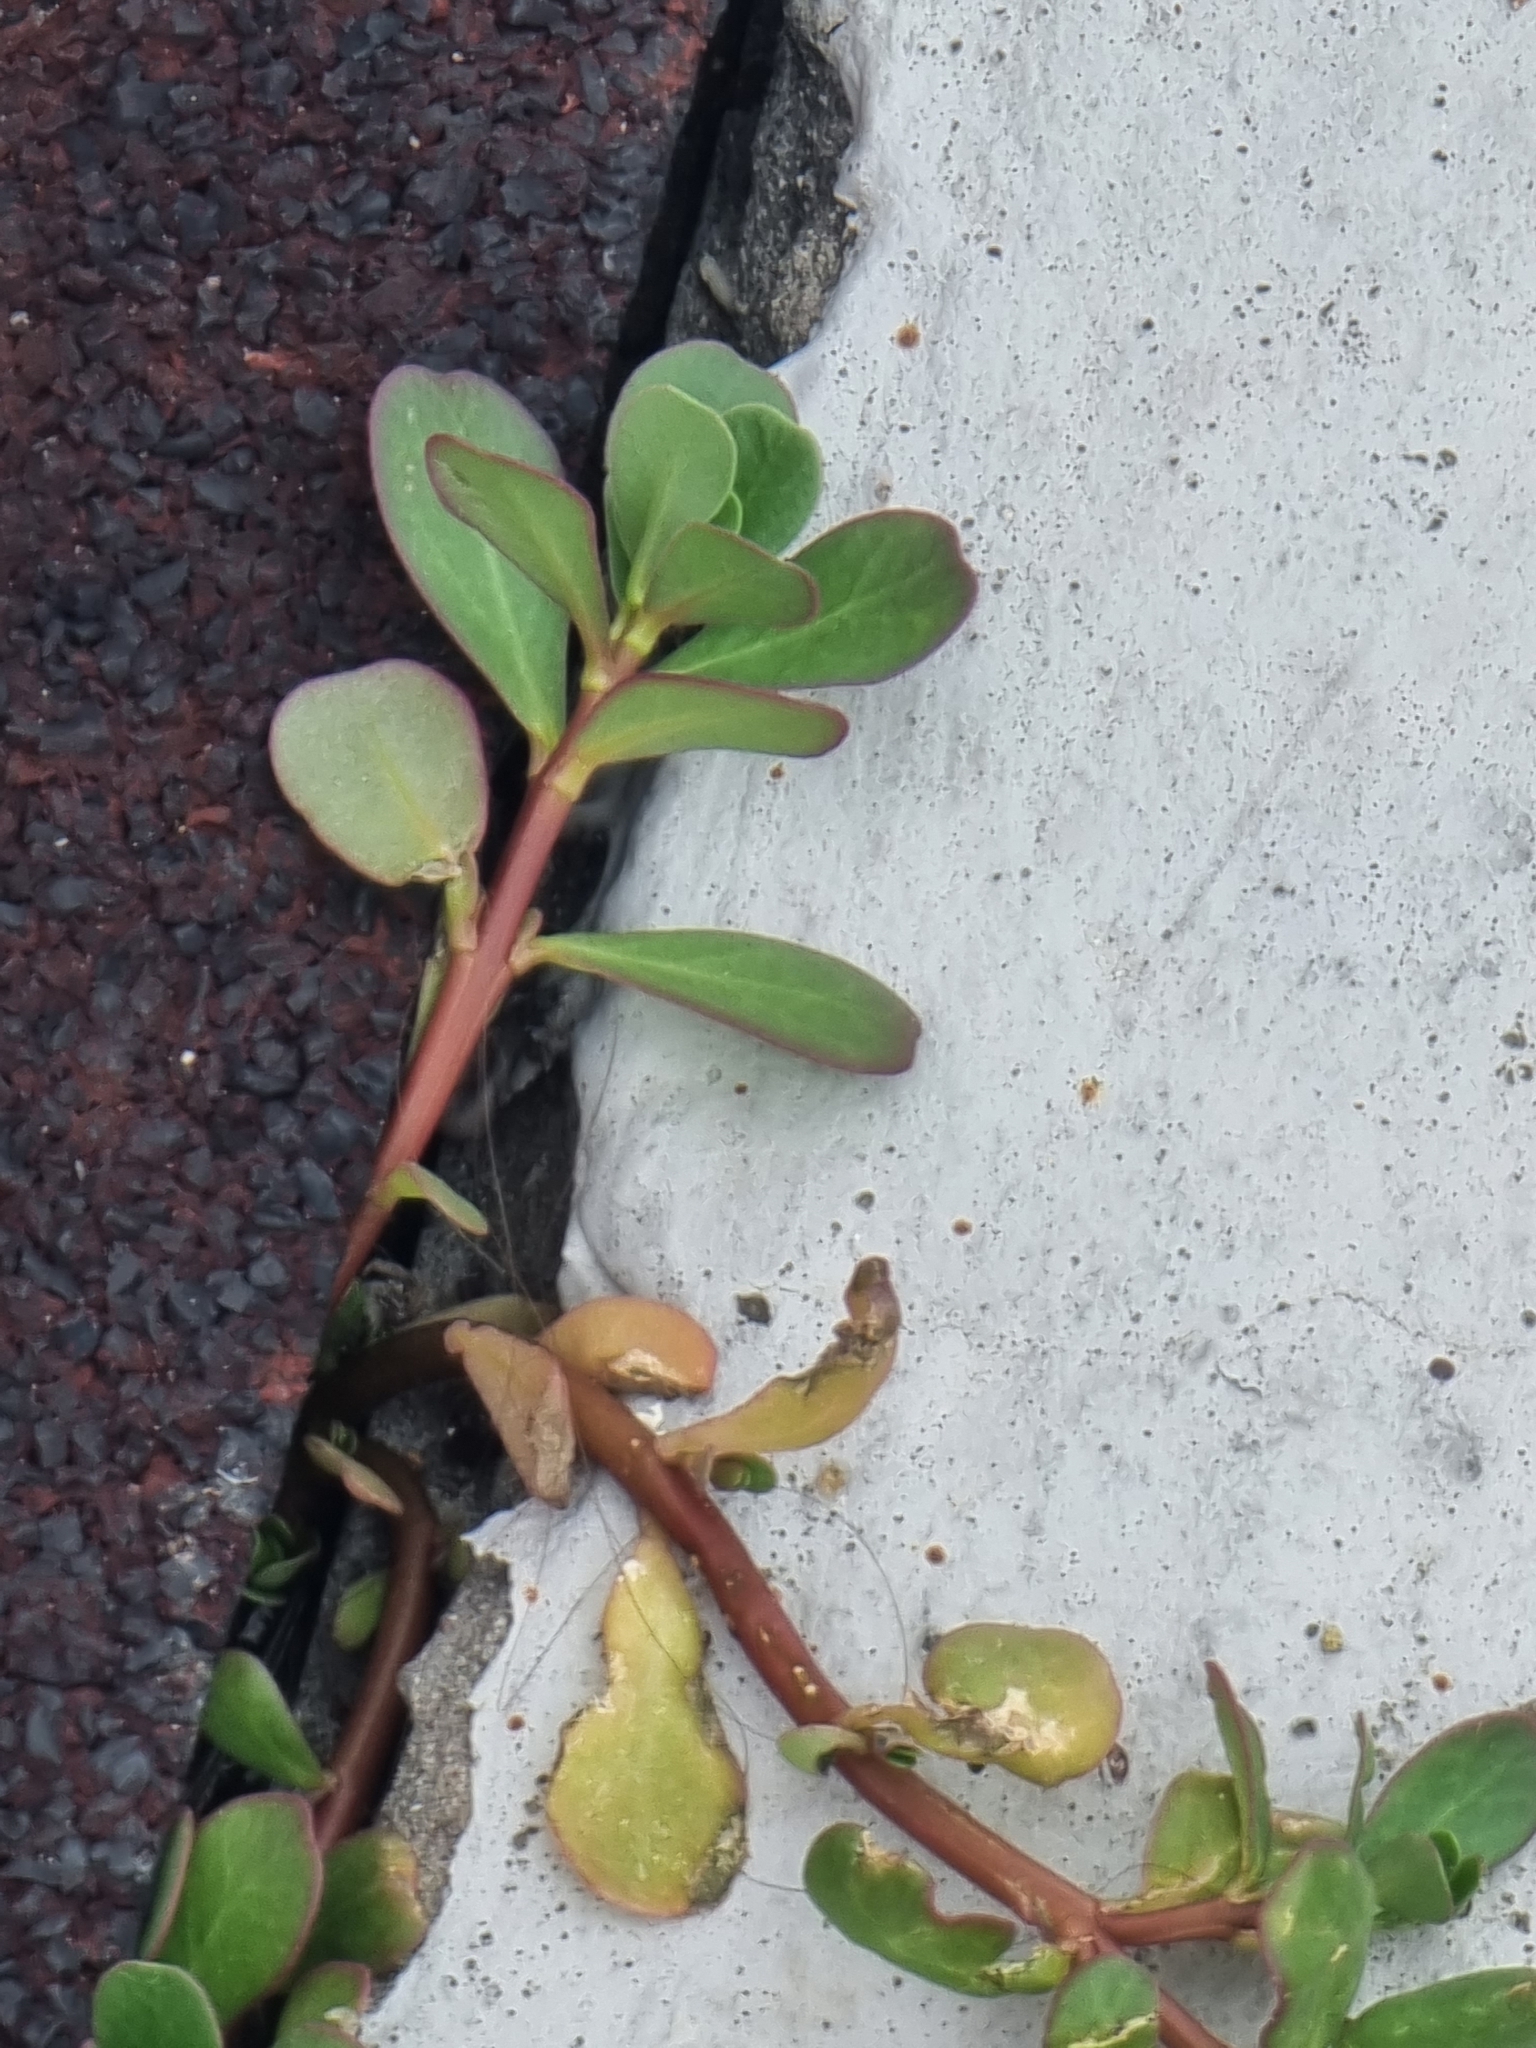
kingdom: Plantae
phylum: Tracheophyta
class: Magnoliopsida
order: Caryophyllales
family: Portulacaceae
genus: Portulaca
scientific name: Portulaca oleracea
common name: Common purslane
